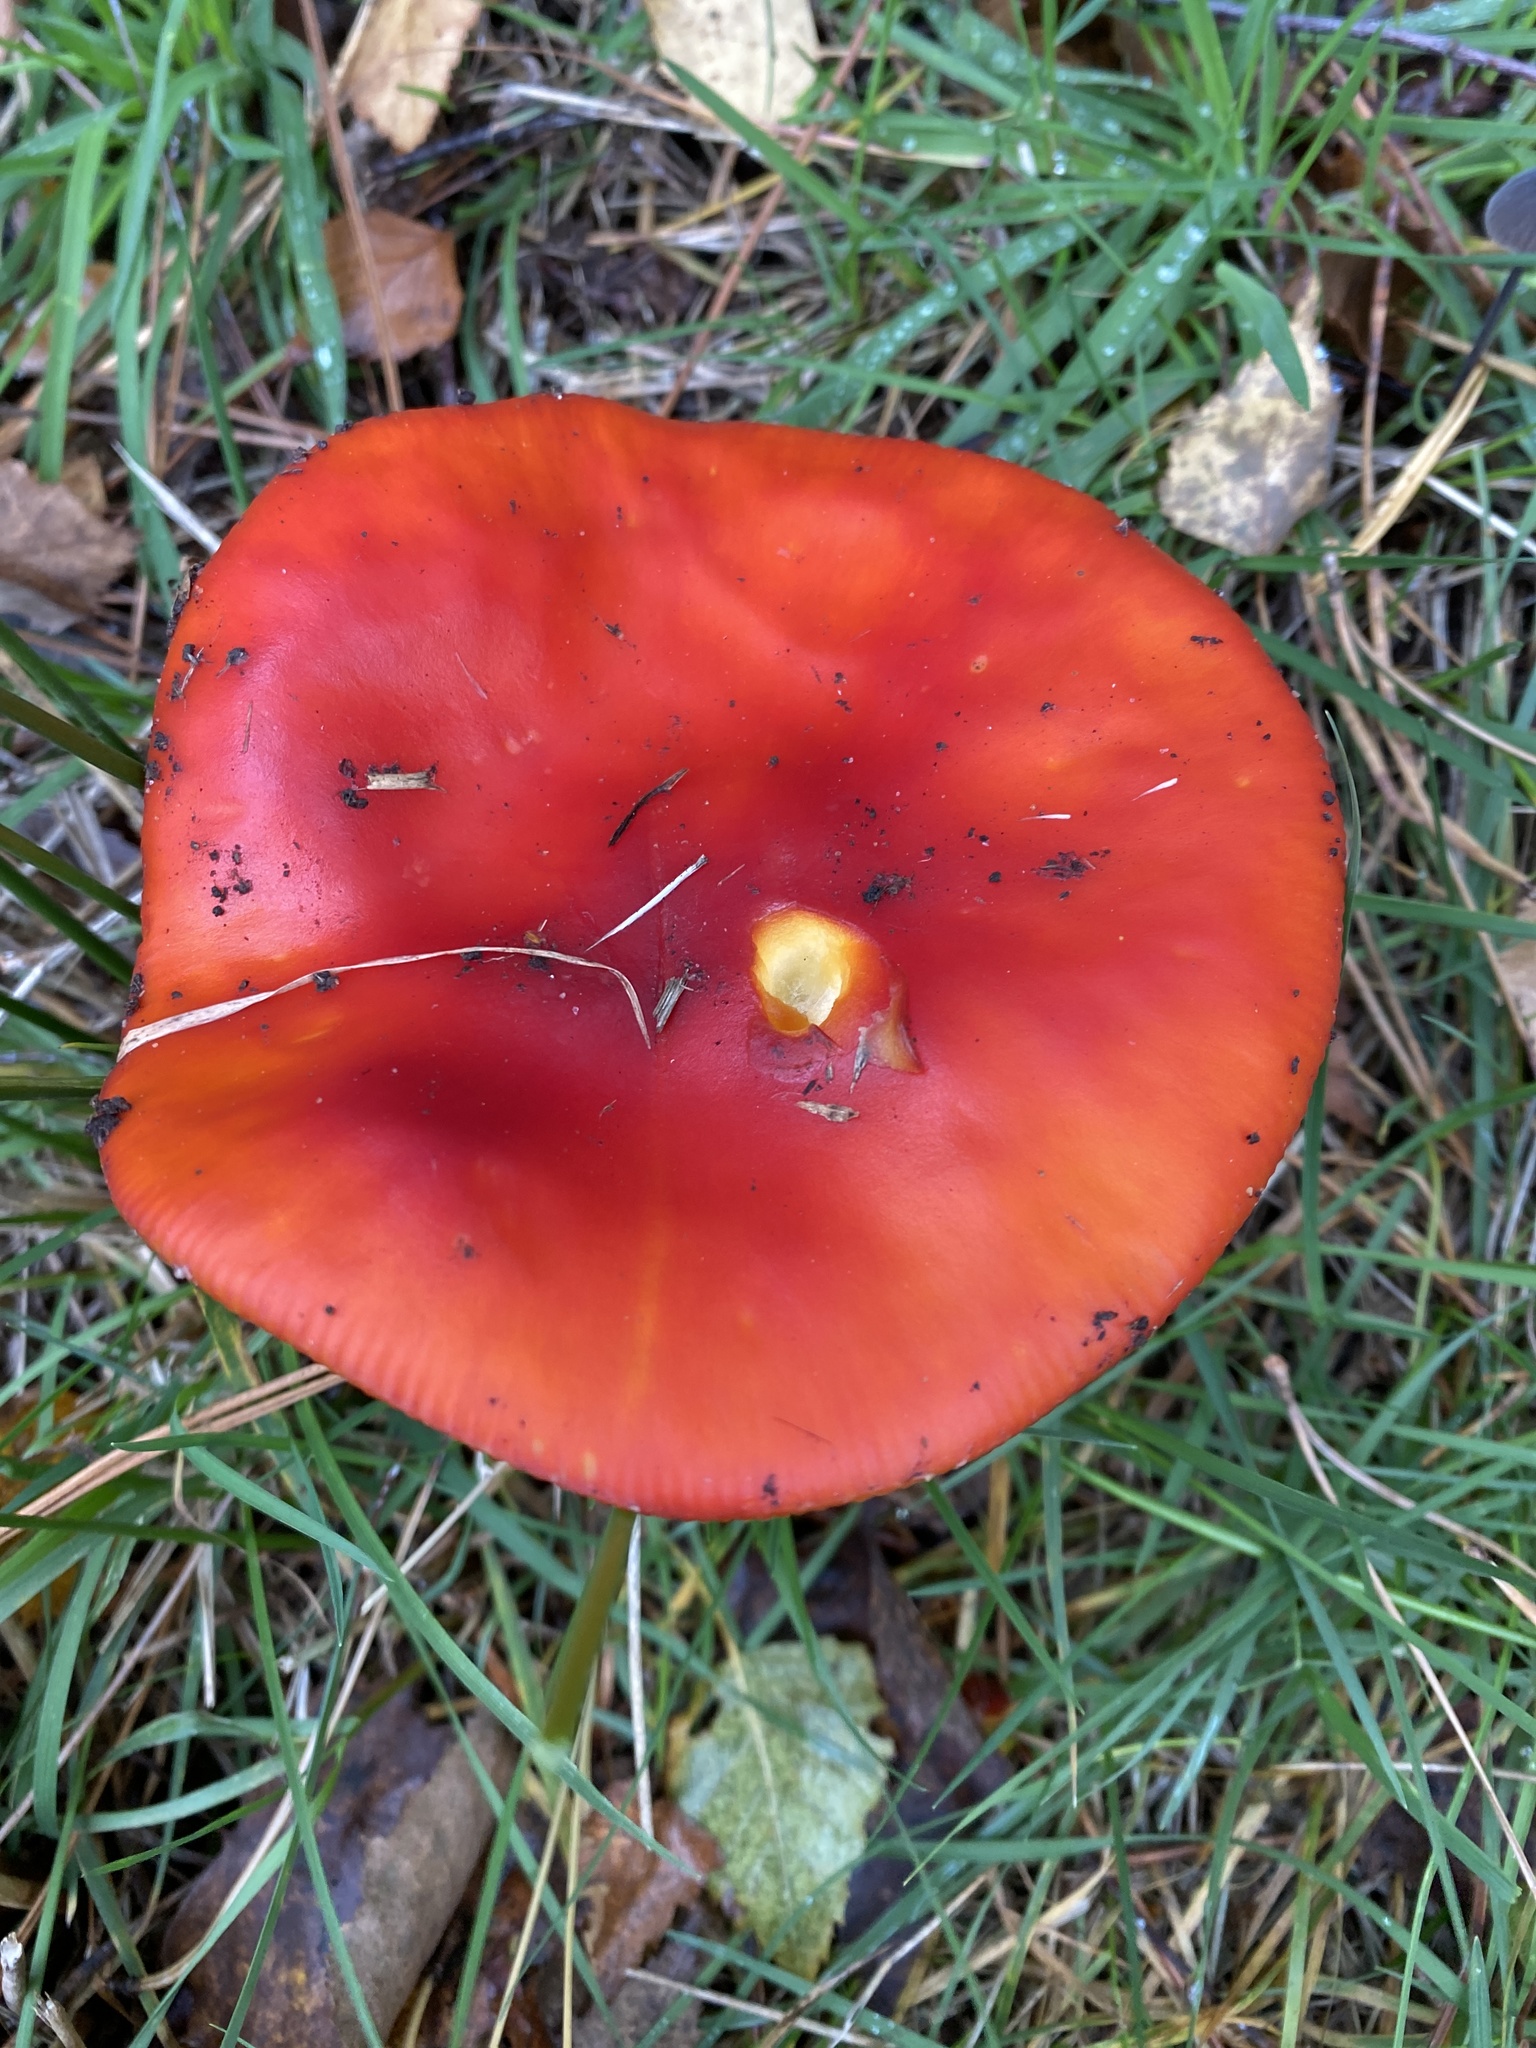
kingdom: Fungi
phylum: Basidiomycota
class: Agaricomycetes
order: Agaricales
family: Amanitaceae
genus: Amanita
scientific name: Amanita muscaria
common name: Fly agaric
